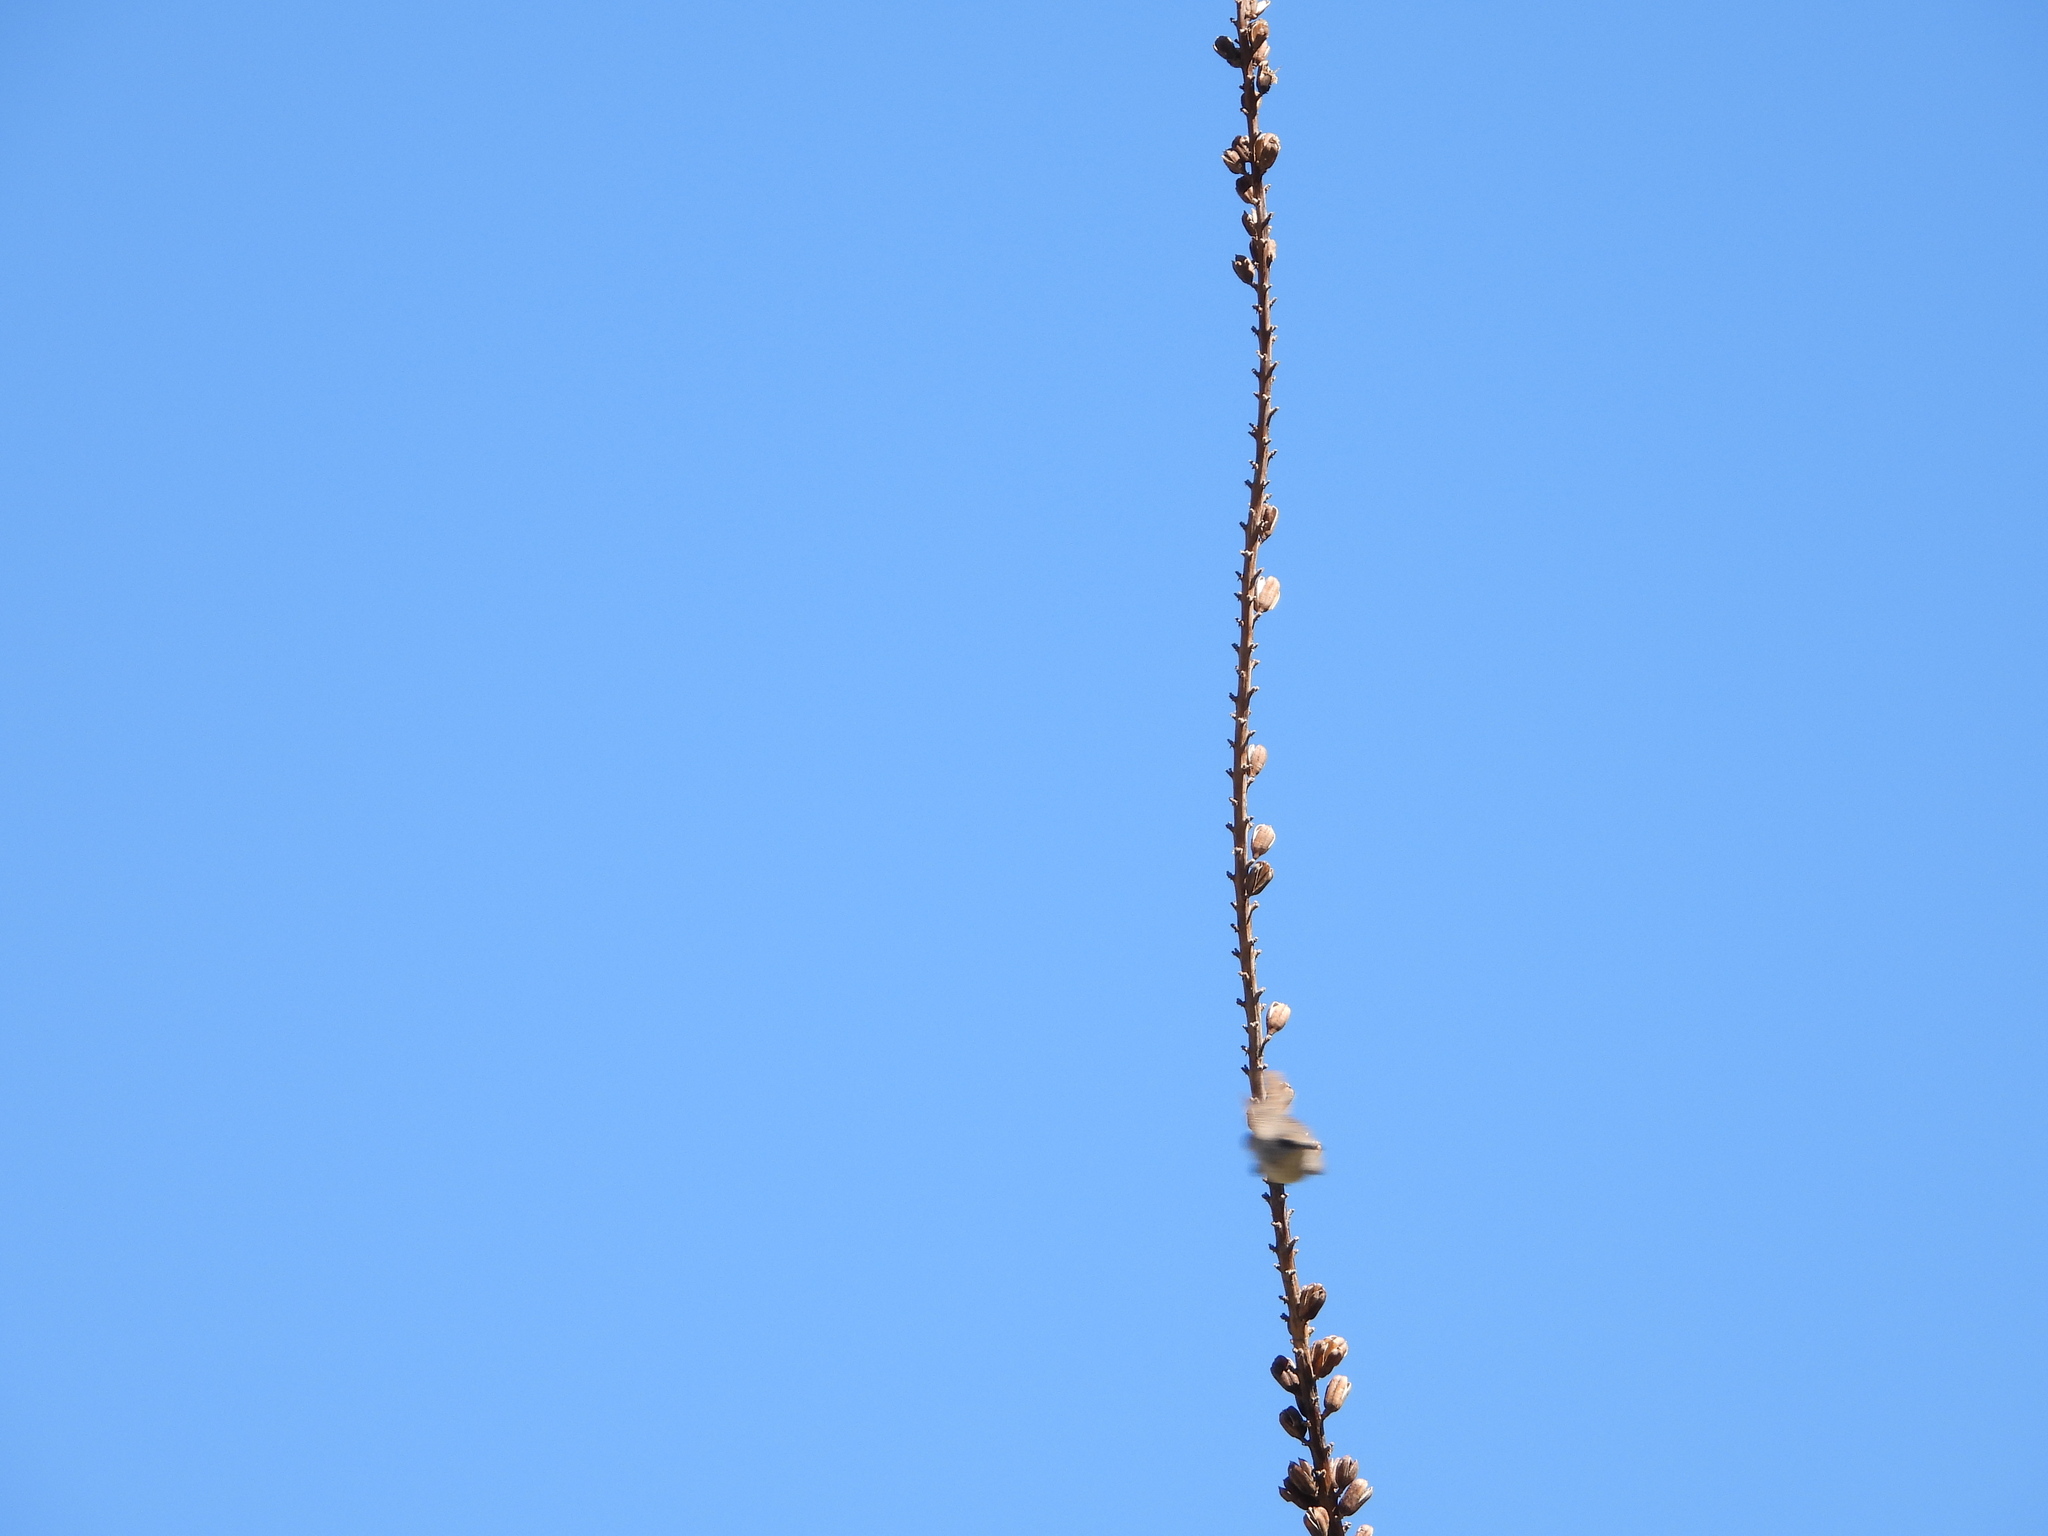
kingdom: Animalia
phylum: Chordata
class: Aves
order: Passeriformes
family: Troglodytidae
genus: Campylorhynchus
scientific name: Campylorhynchus brunneicapillus
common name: Cactus wren
